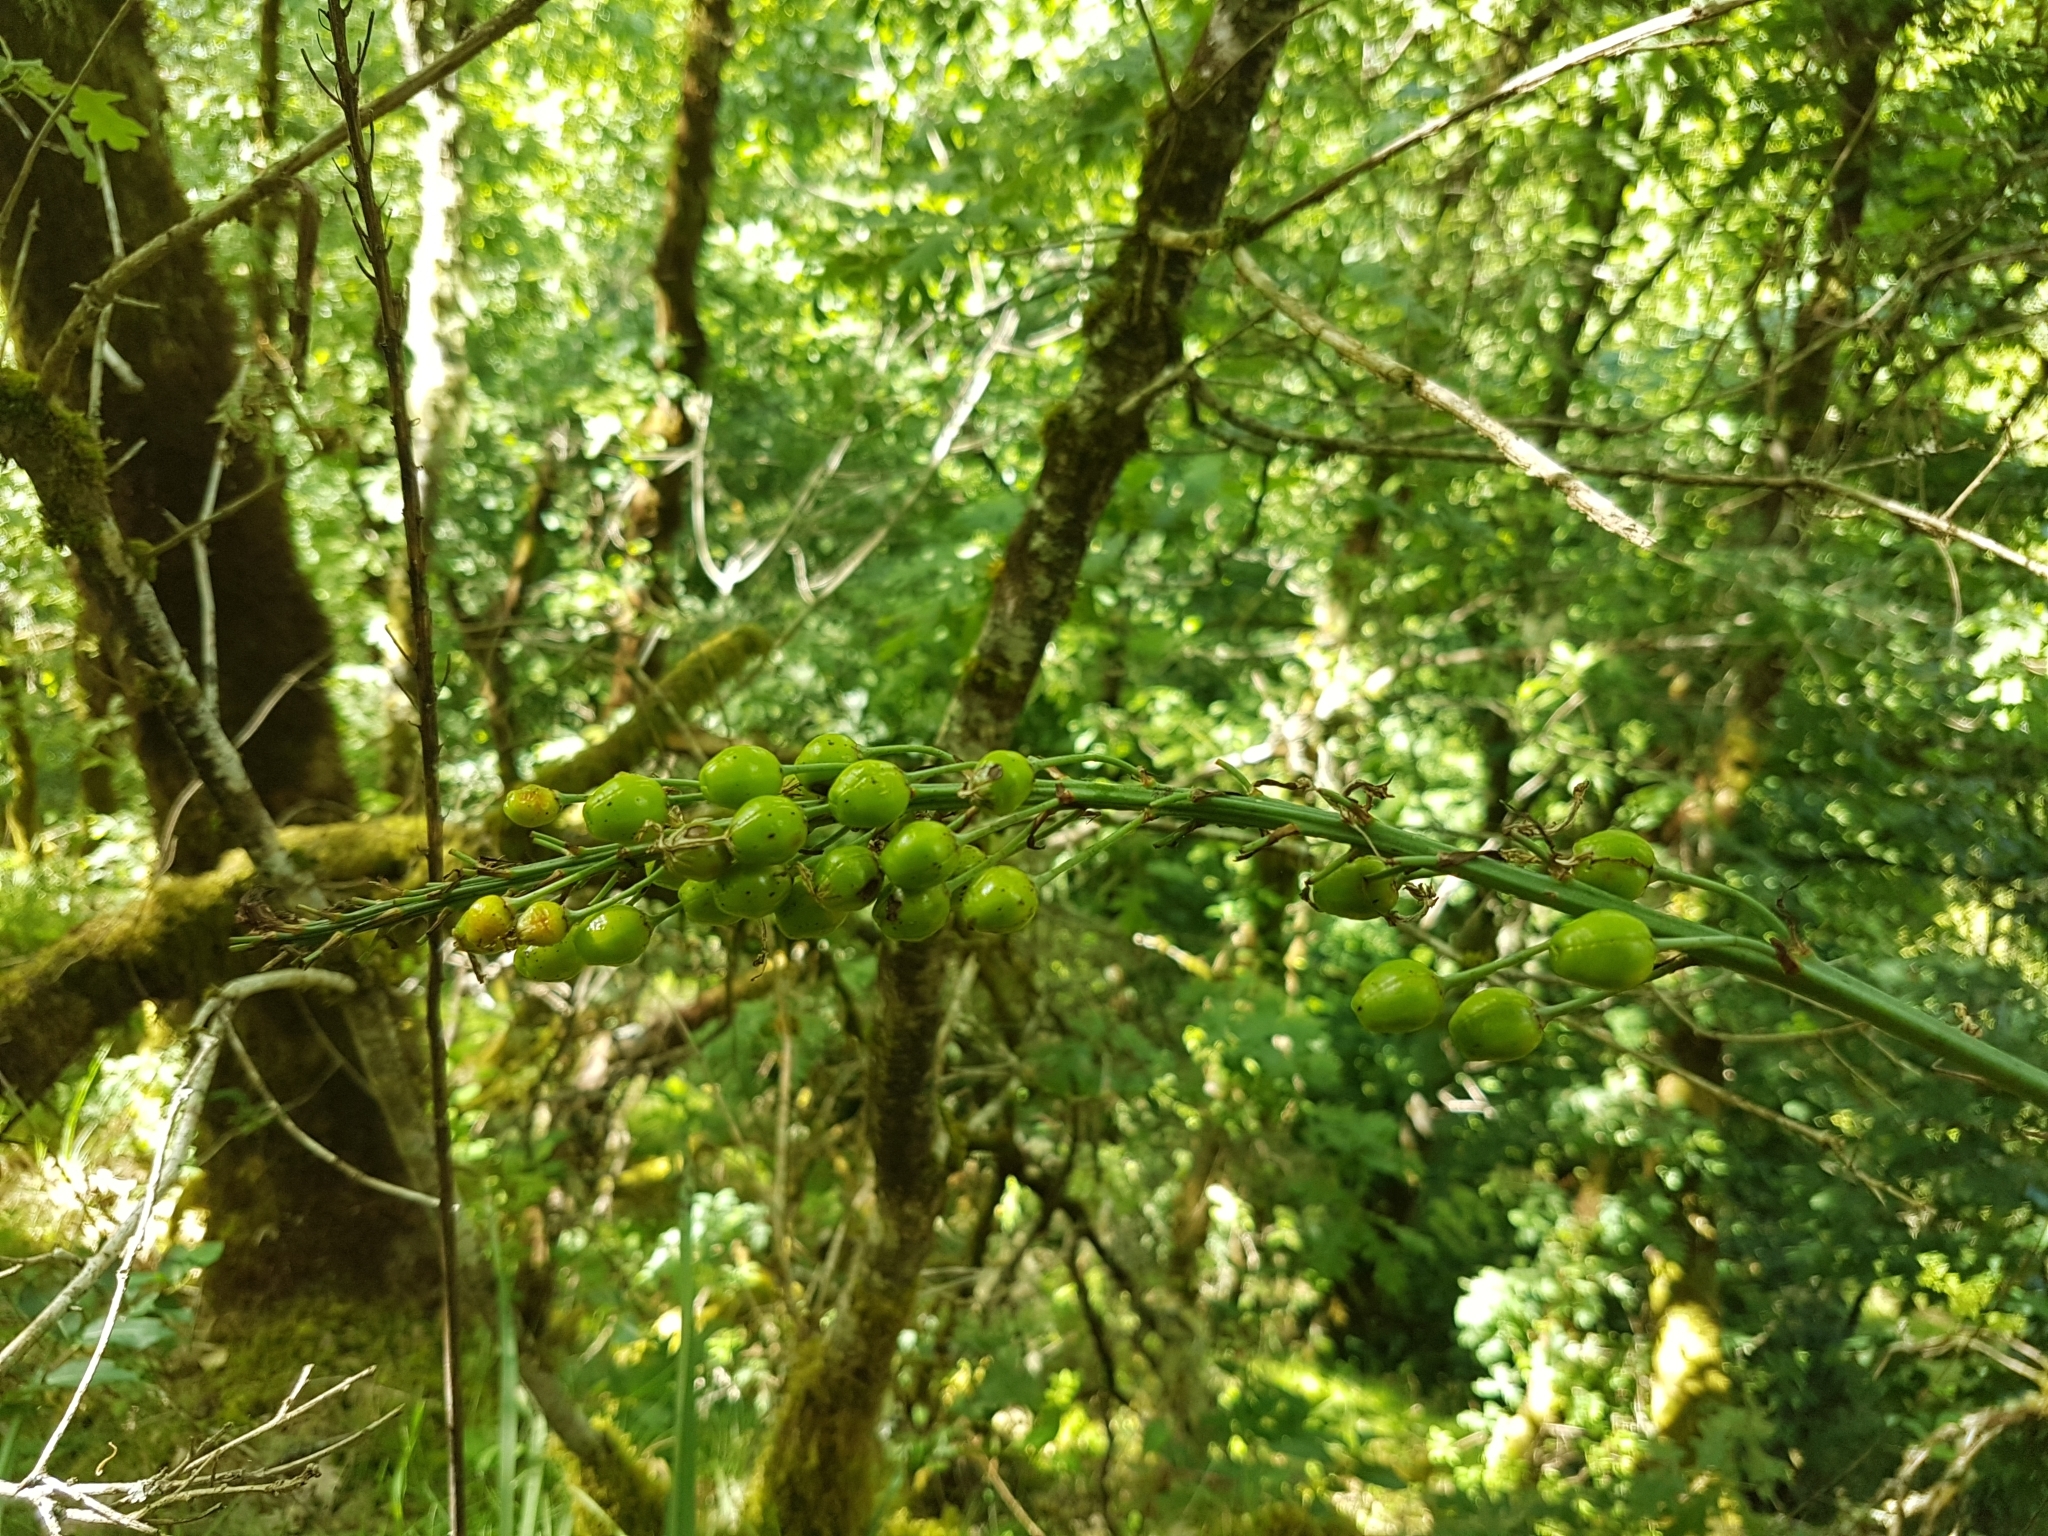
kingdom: Plantae
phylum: Tracheophyta
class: Liliopsida
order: Asparagales
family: Asphodelaceae
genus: Asphodelus
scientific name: Asphodelus albus
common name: White asphodel
